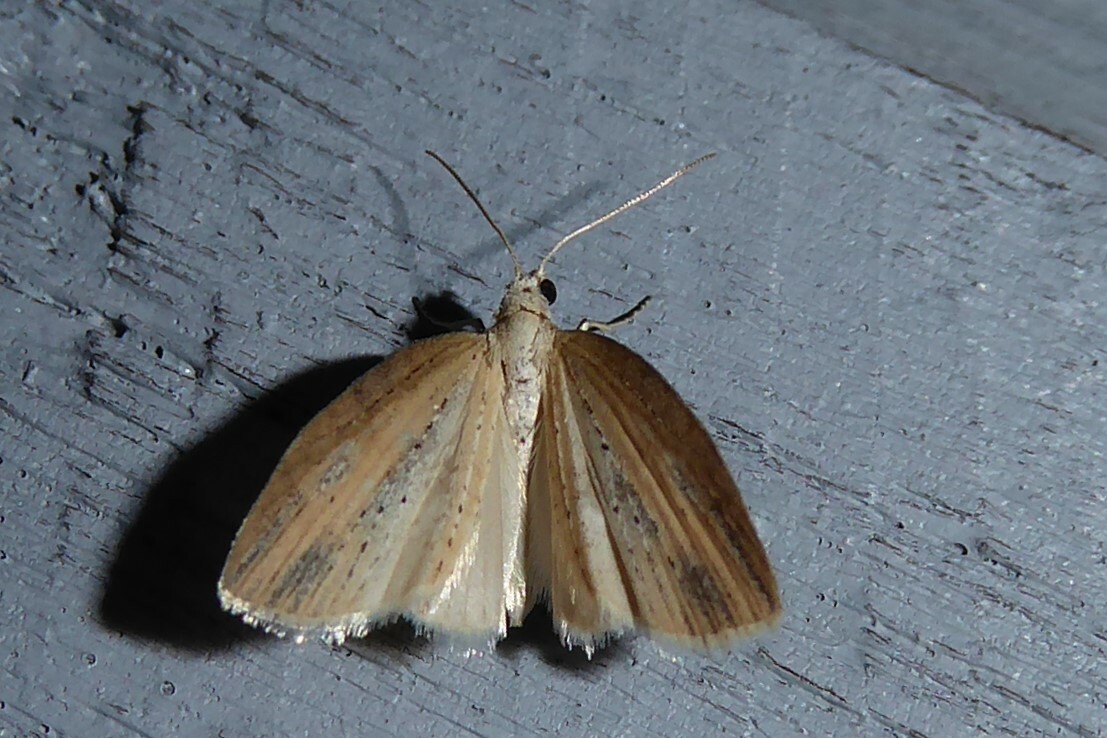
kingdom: Animalia
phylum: Arthropoda
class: Insecta
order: Lepidoptera
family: Geometridae
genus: Microdes
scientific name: Microdes epicryptis
